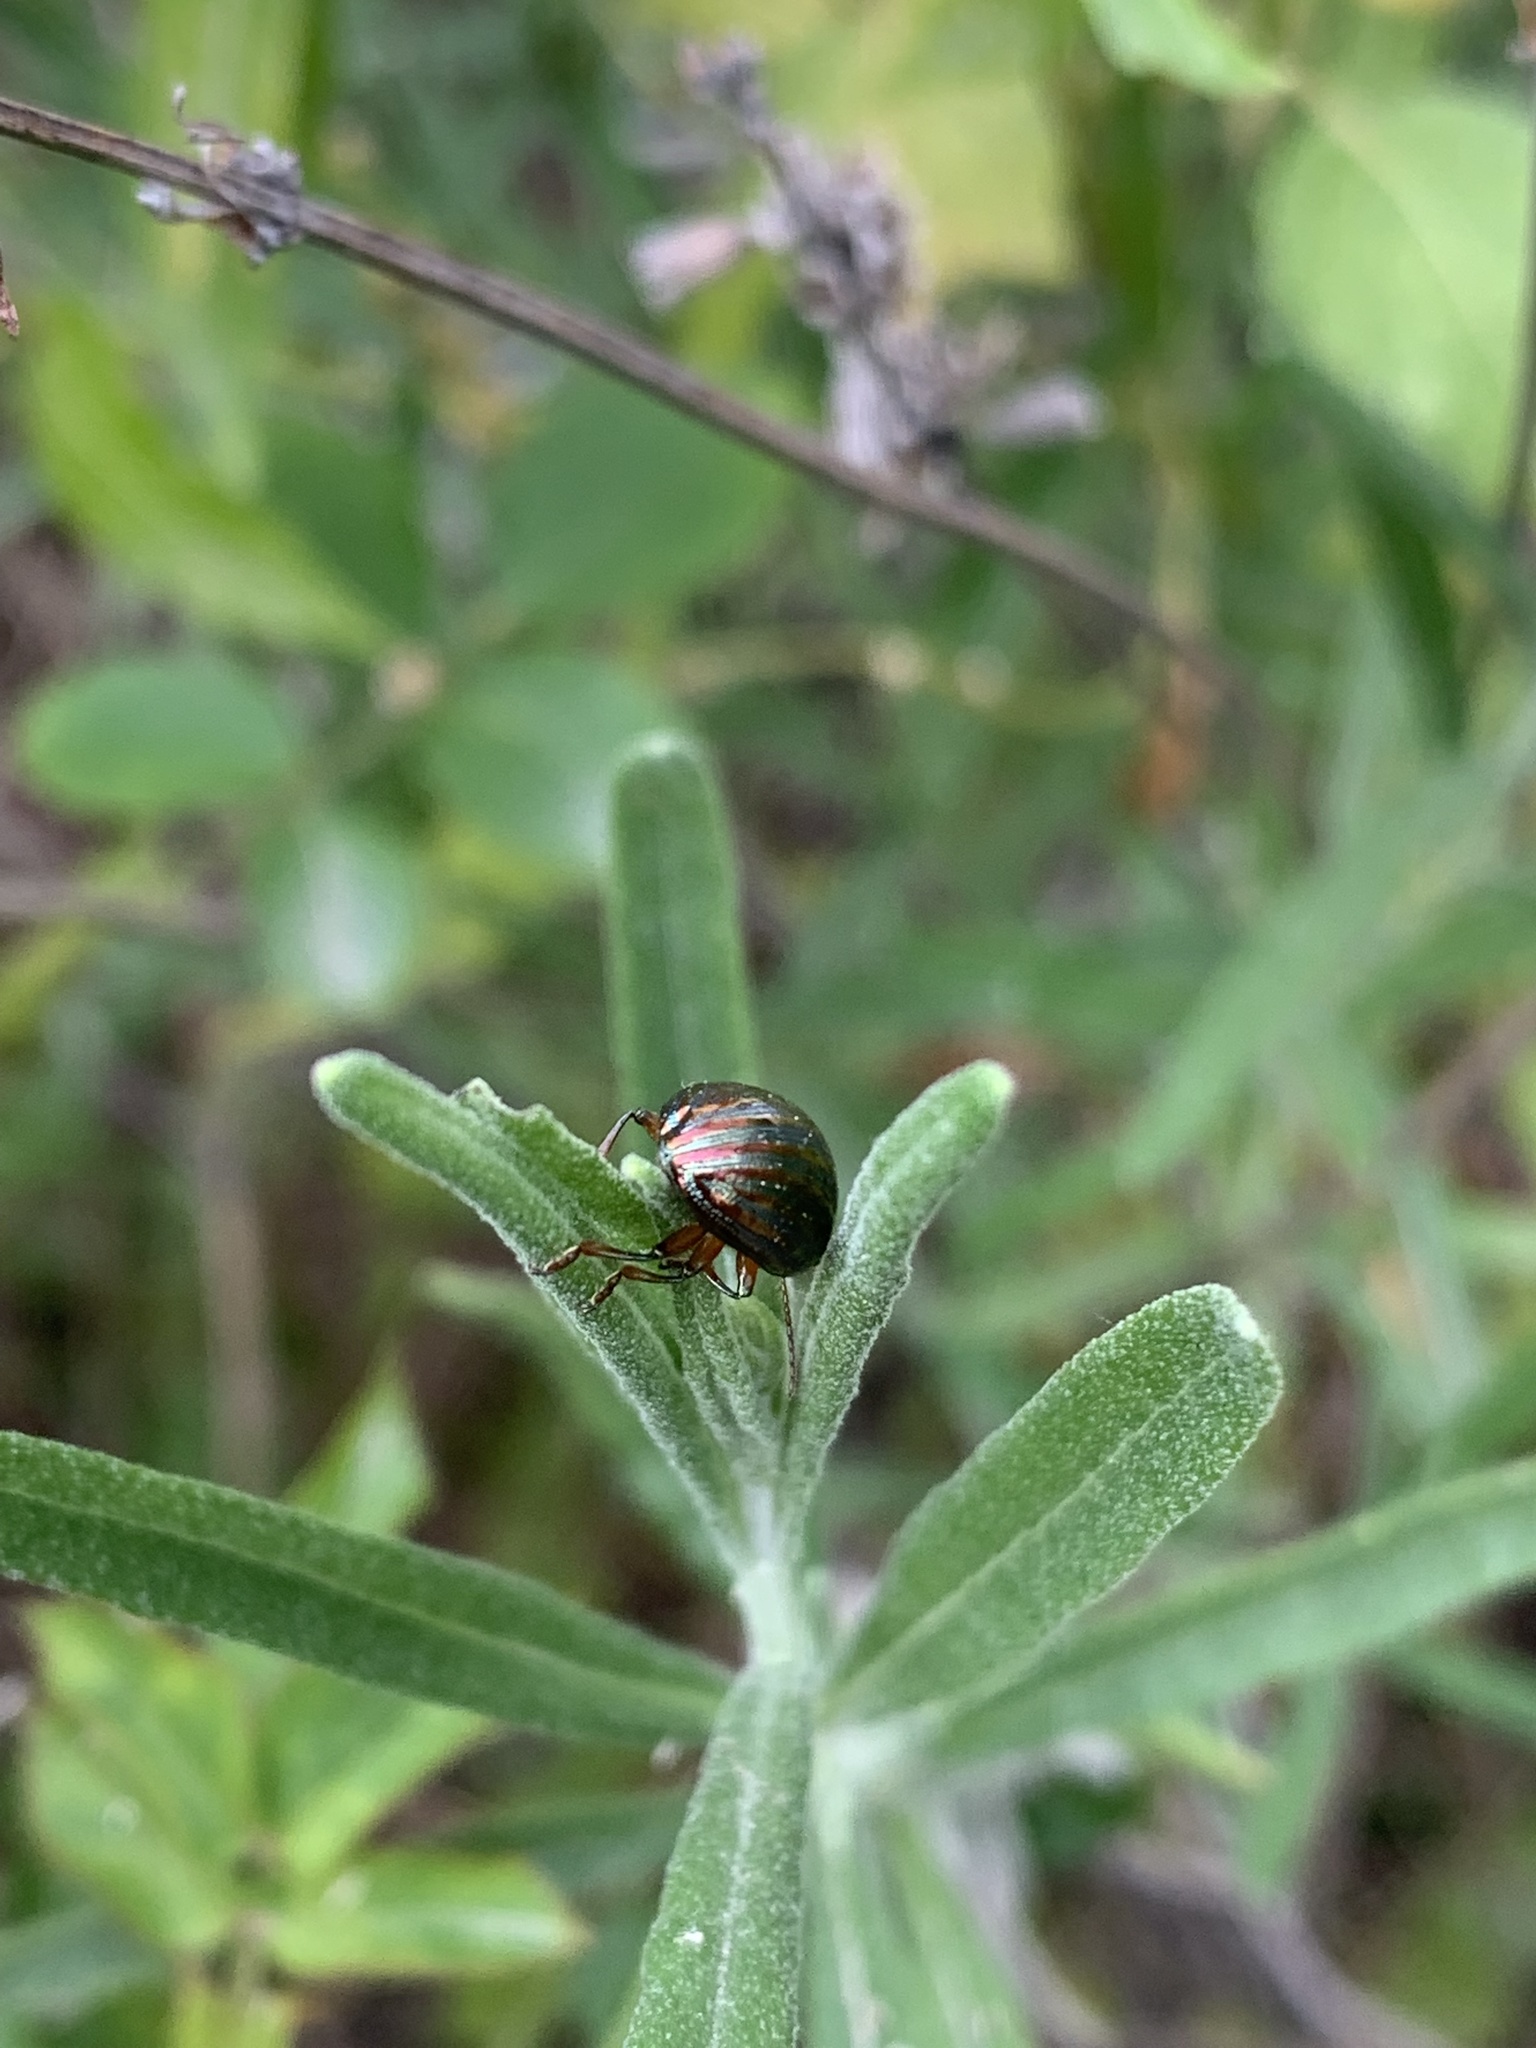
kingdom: Animalia
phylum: Arthropoda
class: Insecta
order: Coleoptera
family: Chrysomelidae
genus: Chrysolina
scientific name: Chrysolina americana
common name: Rosemary beetle
